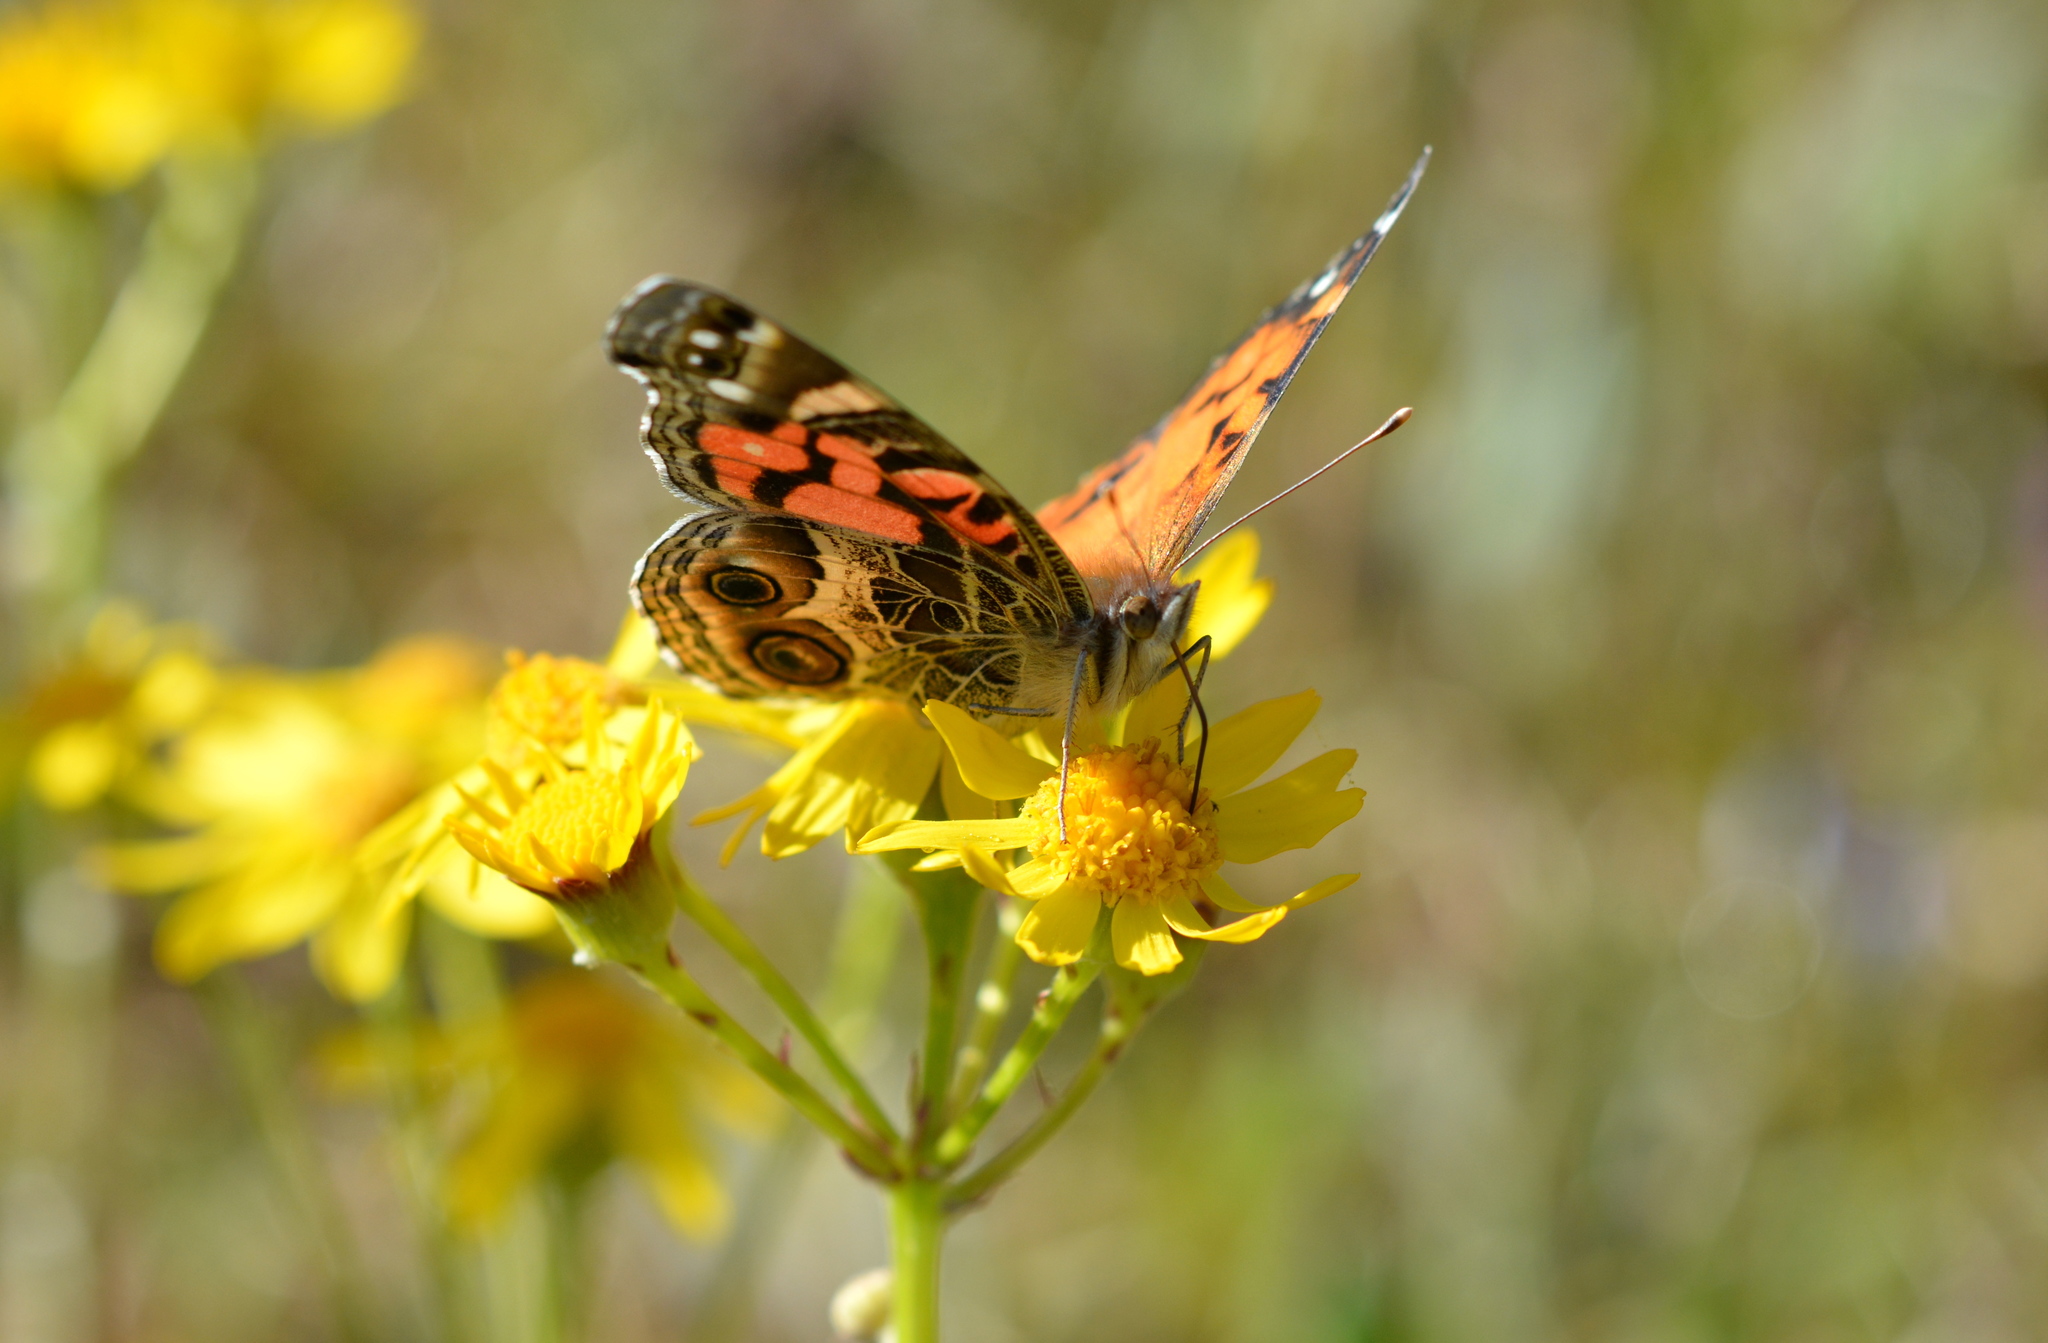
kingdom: Animalia
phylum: Arthropoda
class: Insecta
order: Lepidoptera
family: Nymphalidae
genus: Vanessa
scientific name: Vanessa virginiensis
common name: American lady
